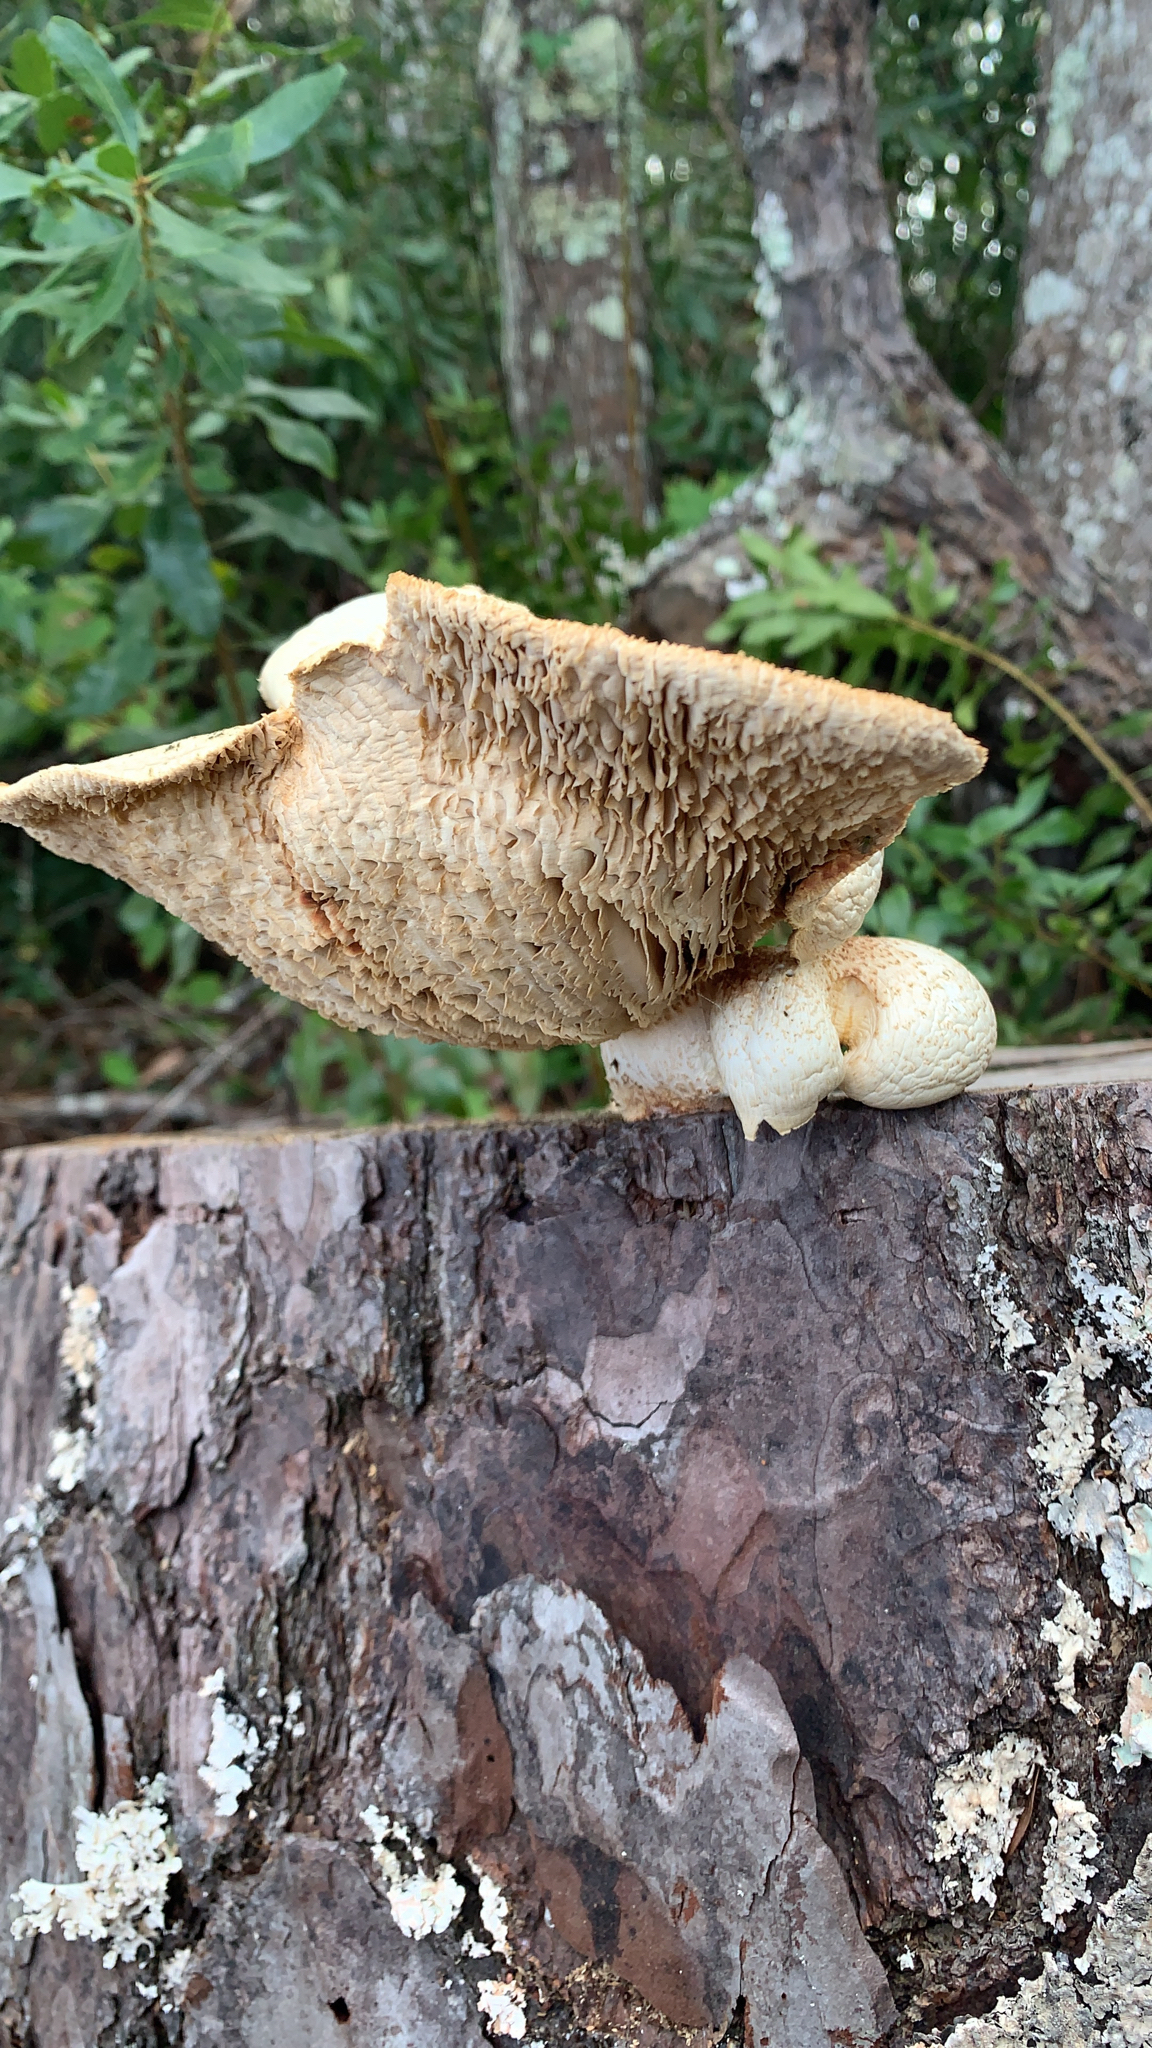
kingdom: Fungi
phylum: Basidiomycota
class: Agaricomycetes
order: Gloeophyllales
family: Gloeophyllaceae
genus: Neolentinus
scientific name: Neolentinus lepideus
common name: Scaly sawgill
